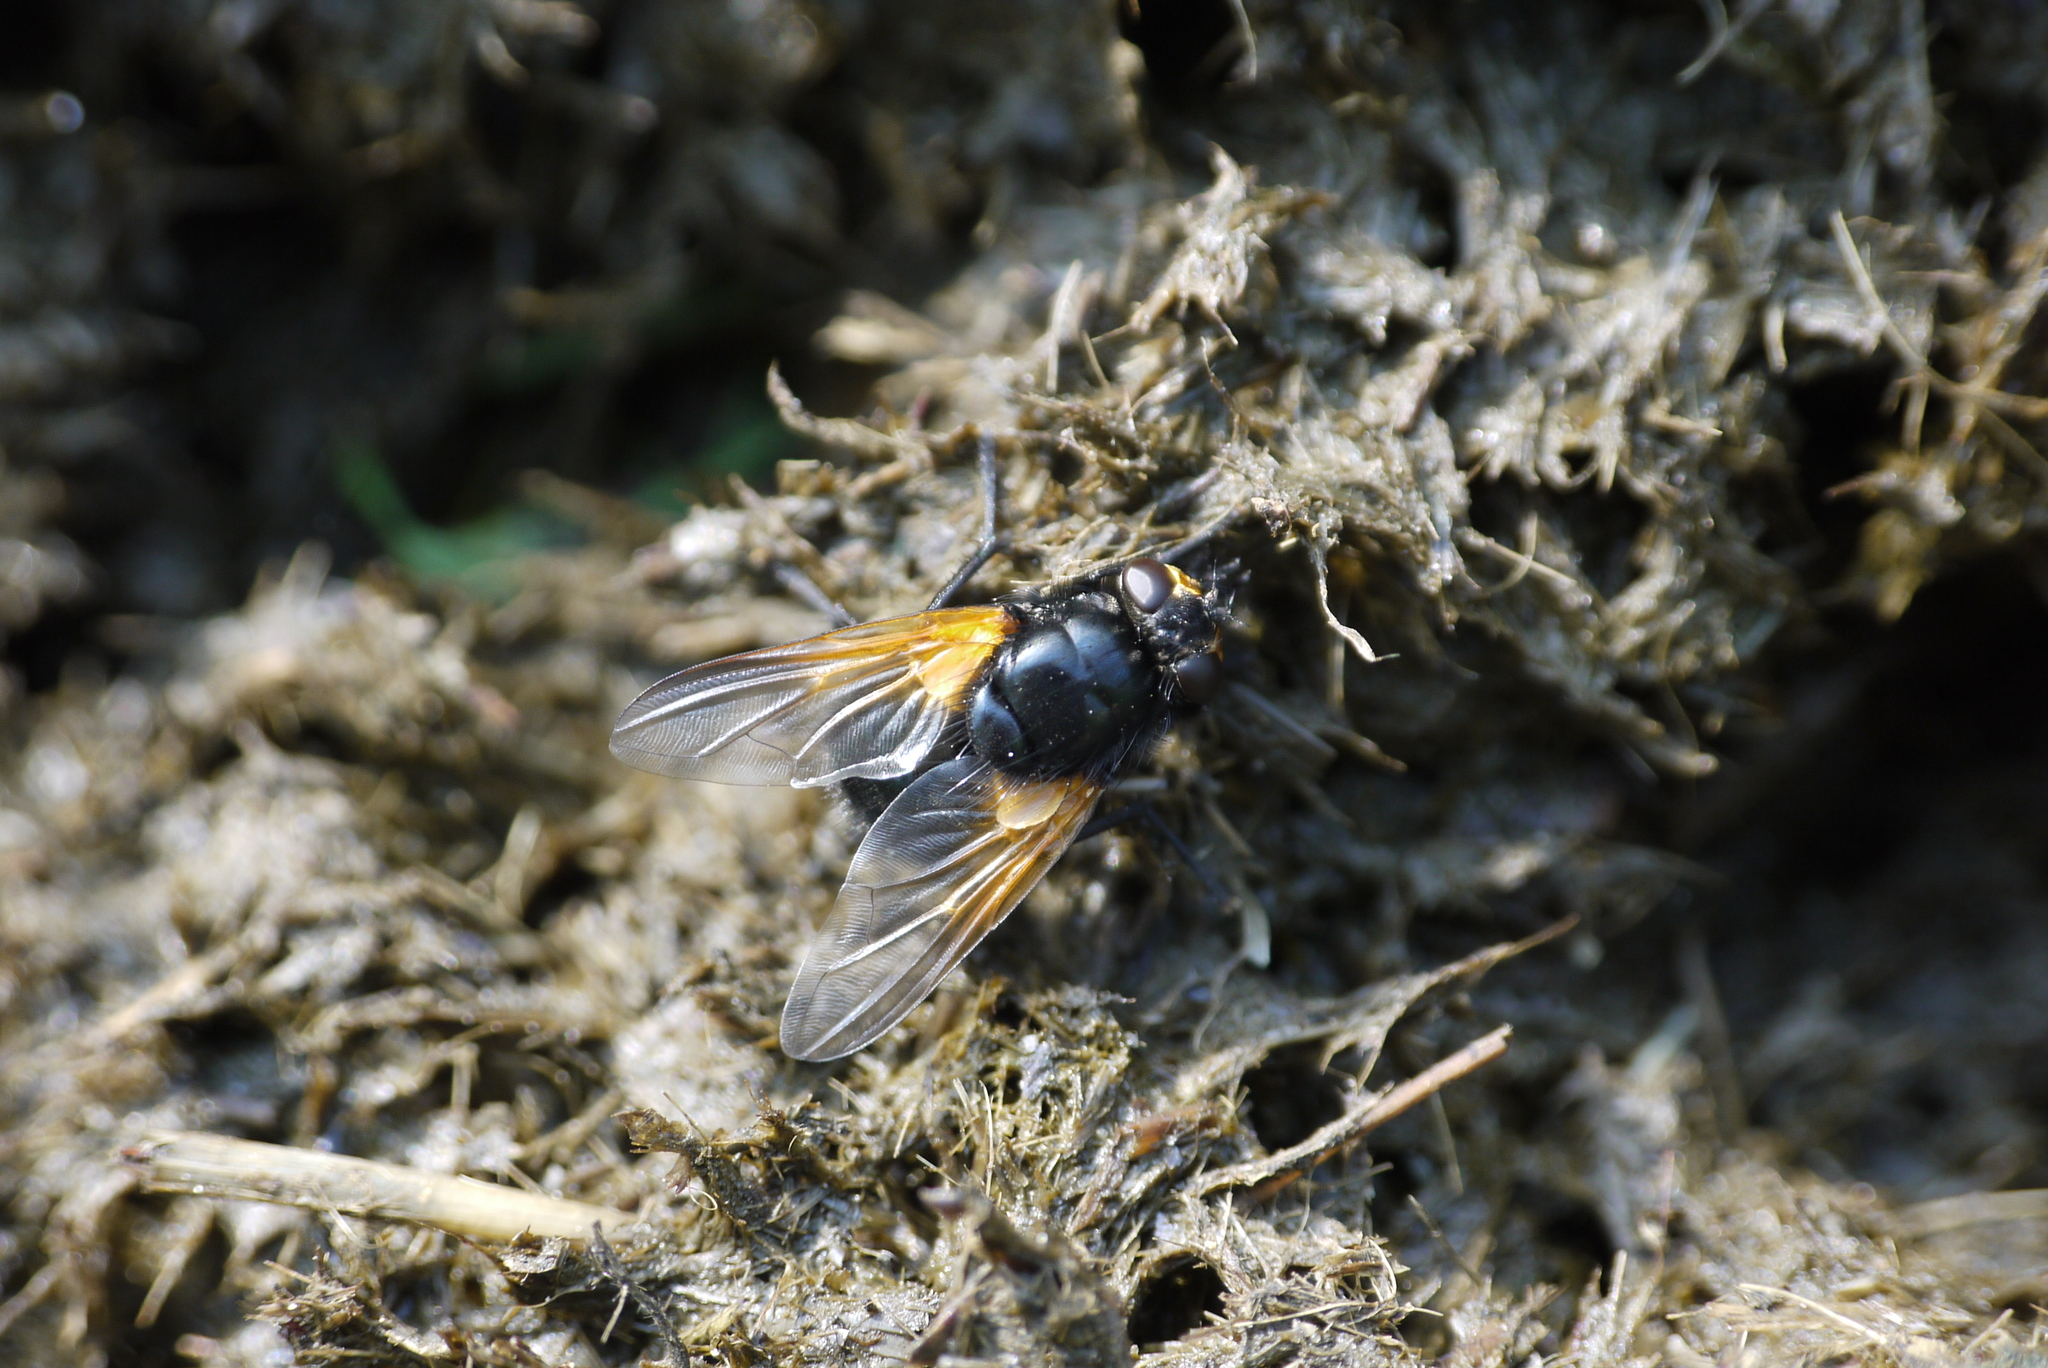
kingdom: Animalia
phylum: Arthropoda
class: Insecta
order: Diptera
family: Muscidae
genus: Mesembrina
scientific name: Mesembrina meridiana
